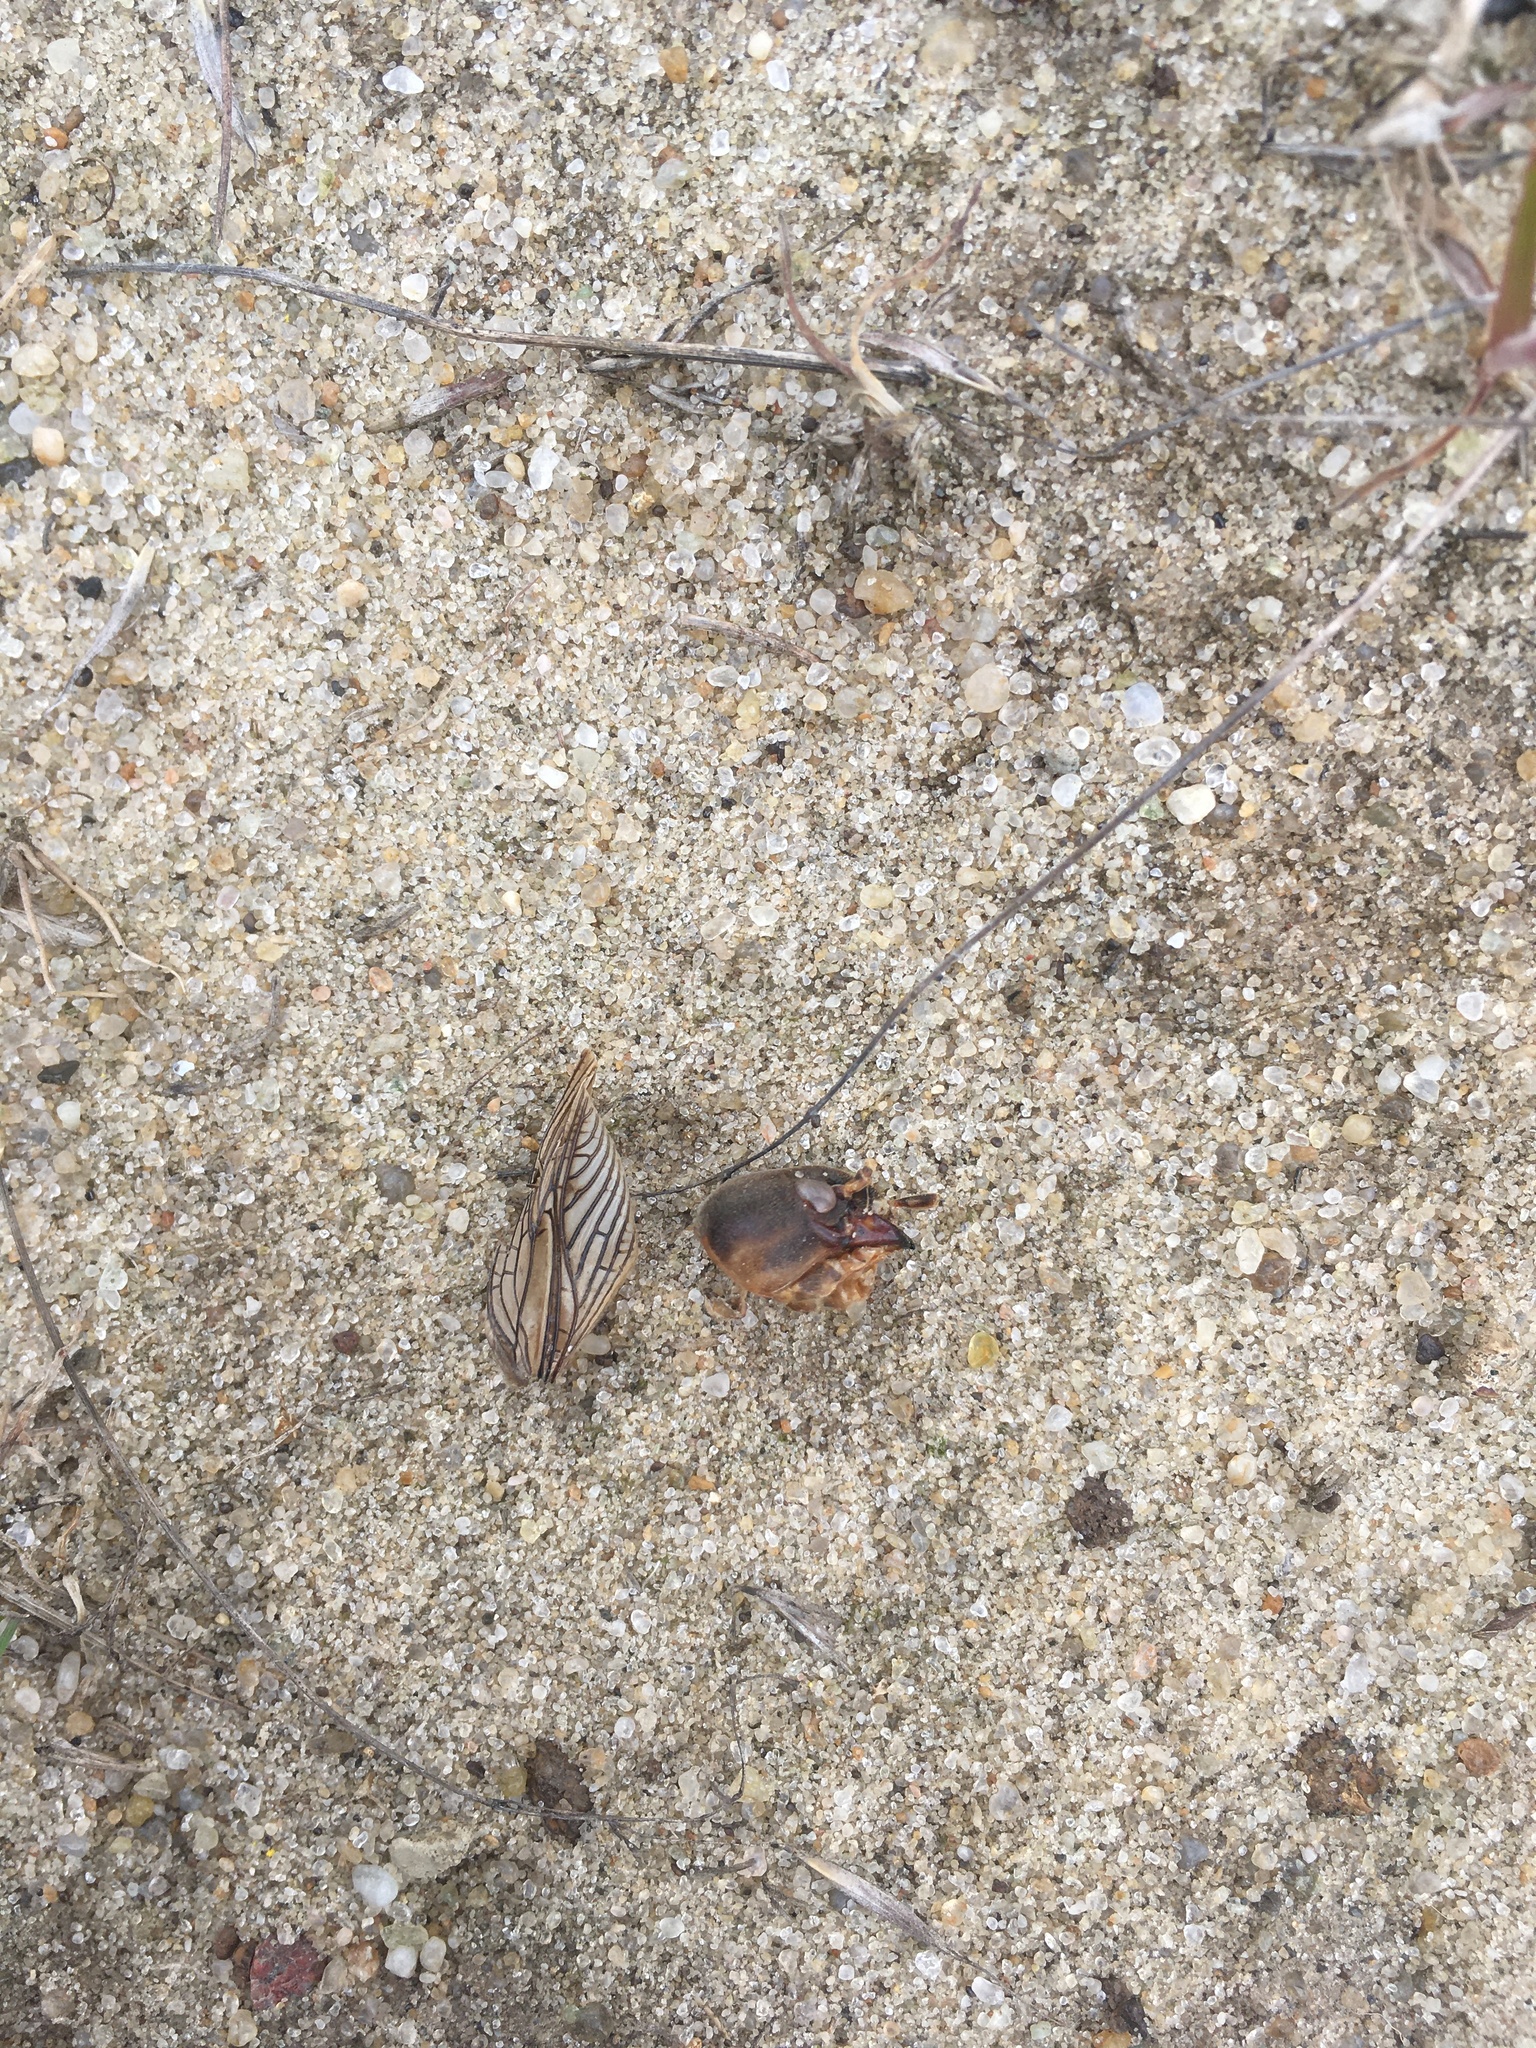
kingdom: Animalia
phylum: Arthropoda
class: Insecta
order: Orthoptera
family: Gryllotalpidae
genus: Gryllotalpa
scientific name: Gryllotalpa gryllotalpa
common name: European mole cricket
